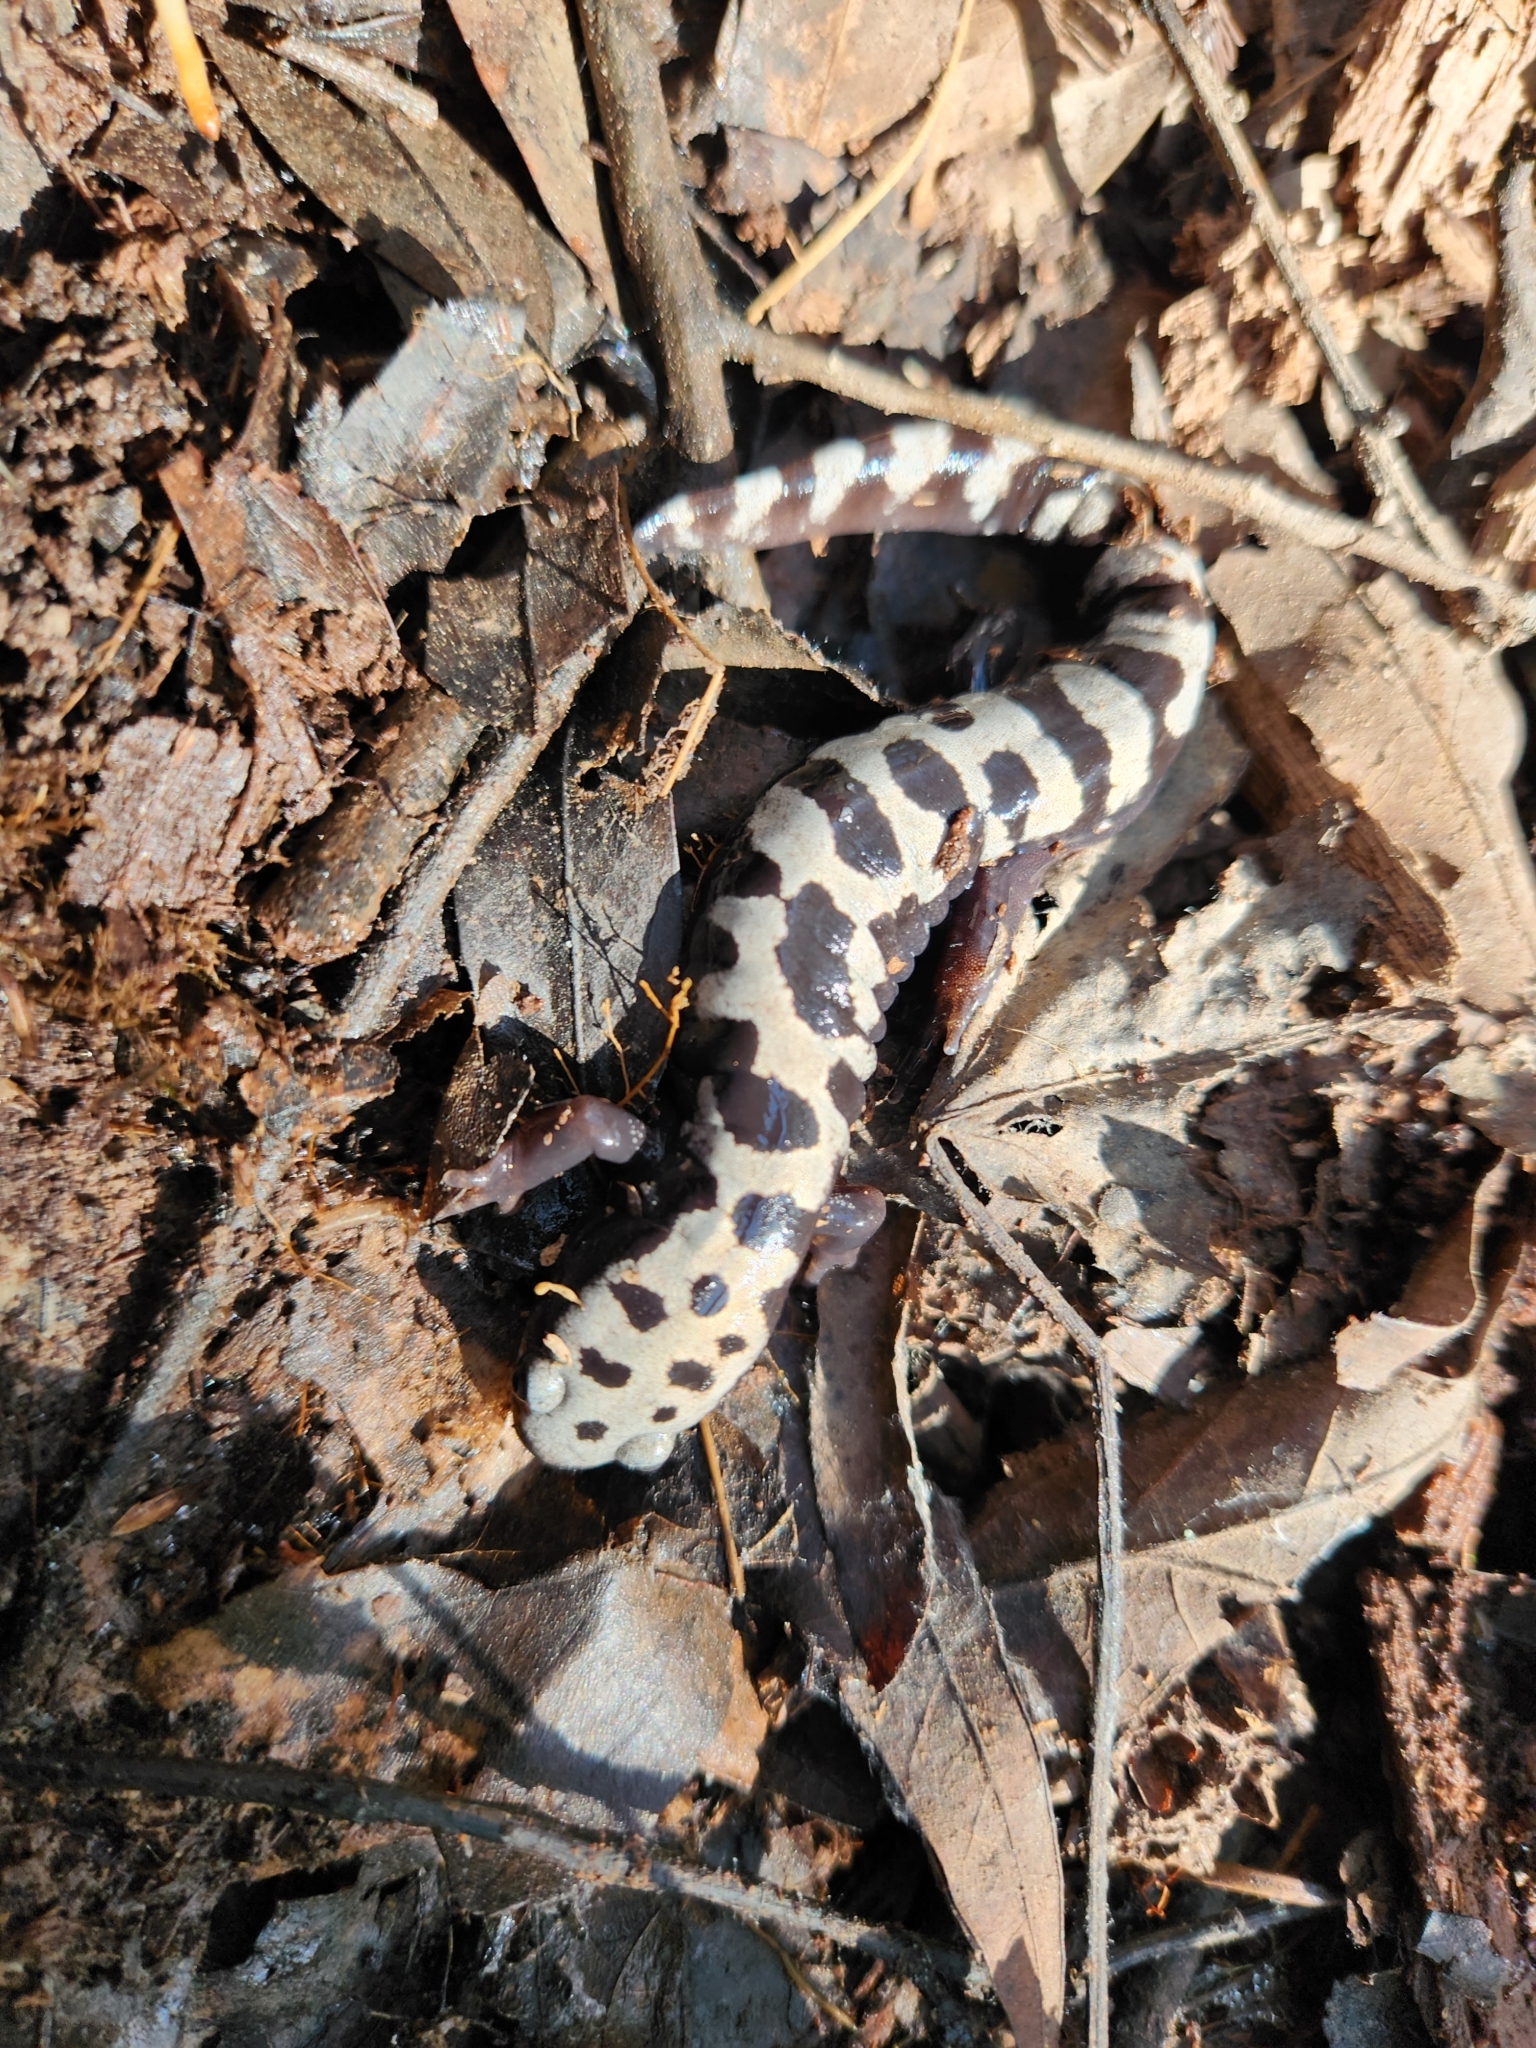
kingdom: Animalia
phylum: Chordata
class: Amphibia
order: Caudata
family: Ambystomatidae
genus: Ambystoma
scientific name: Ambystoma opacum
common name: Marbled salamander
